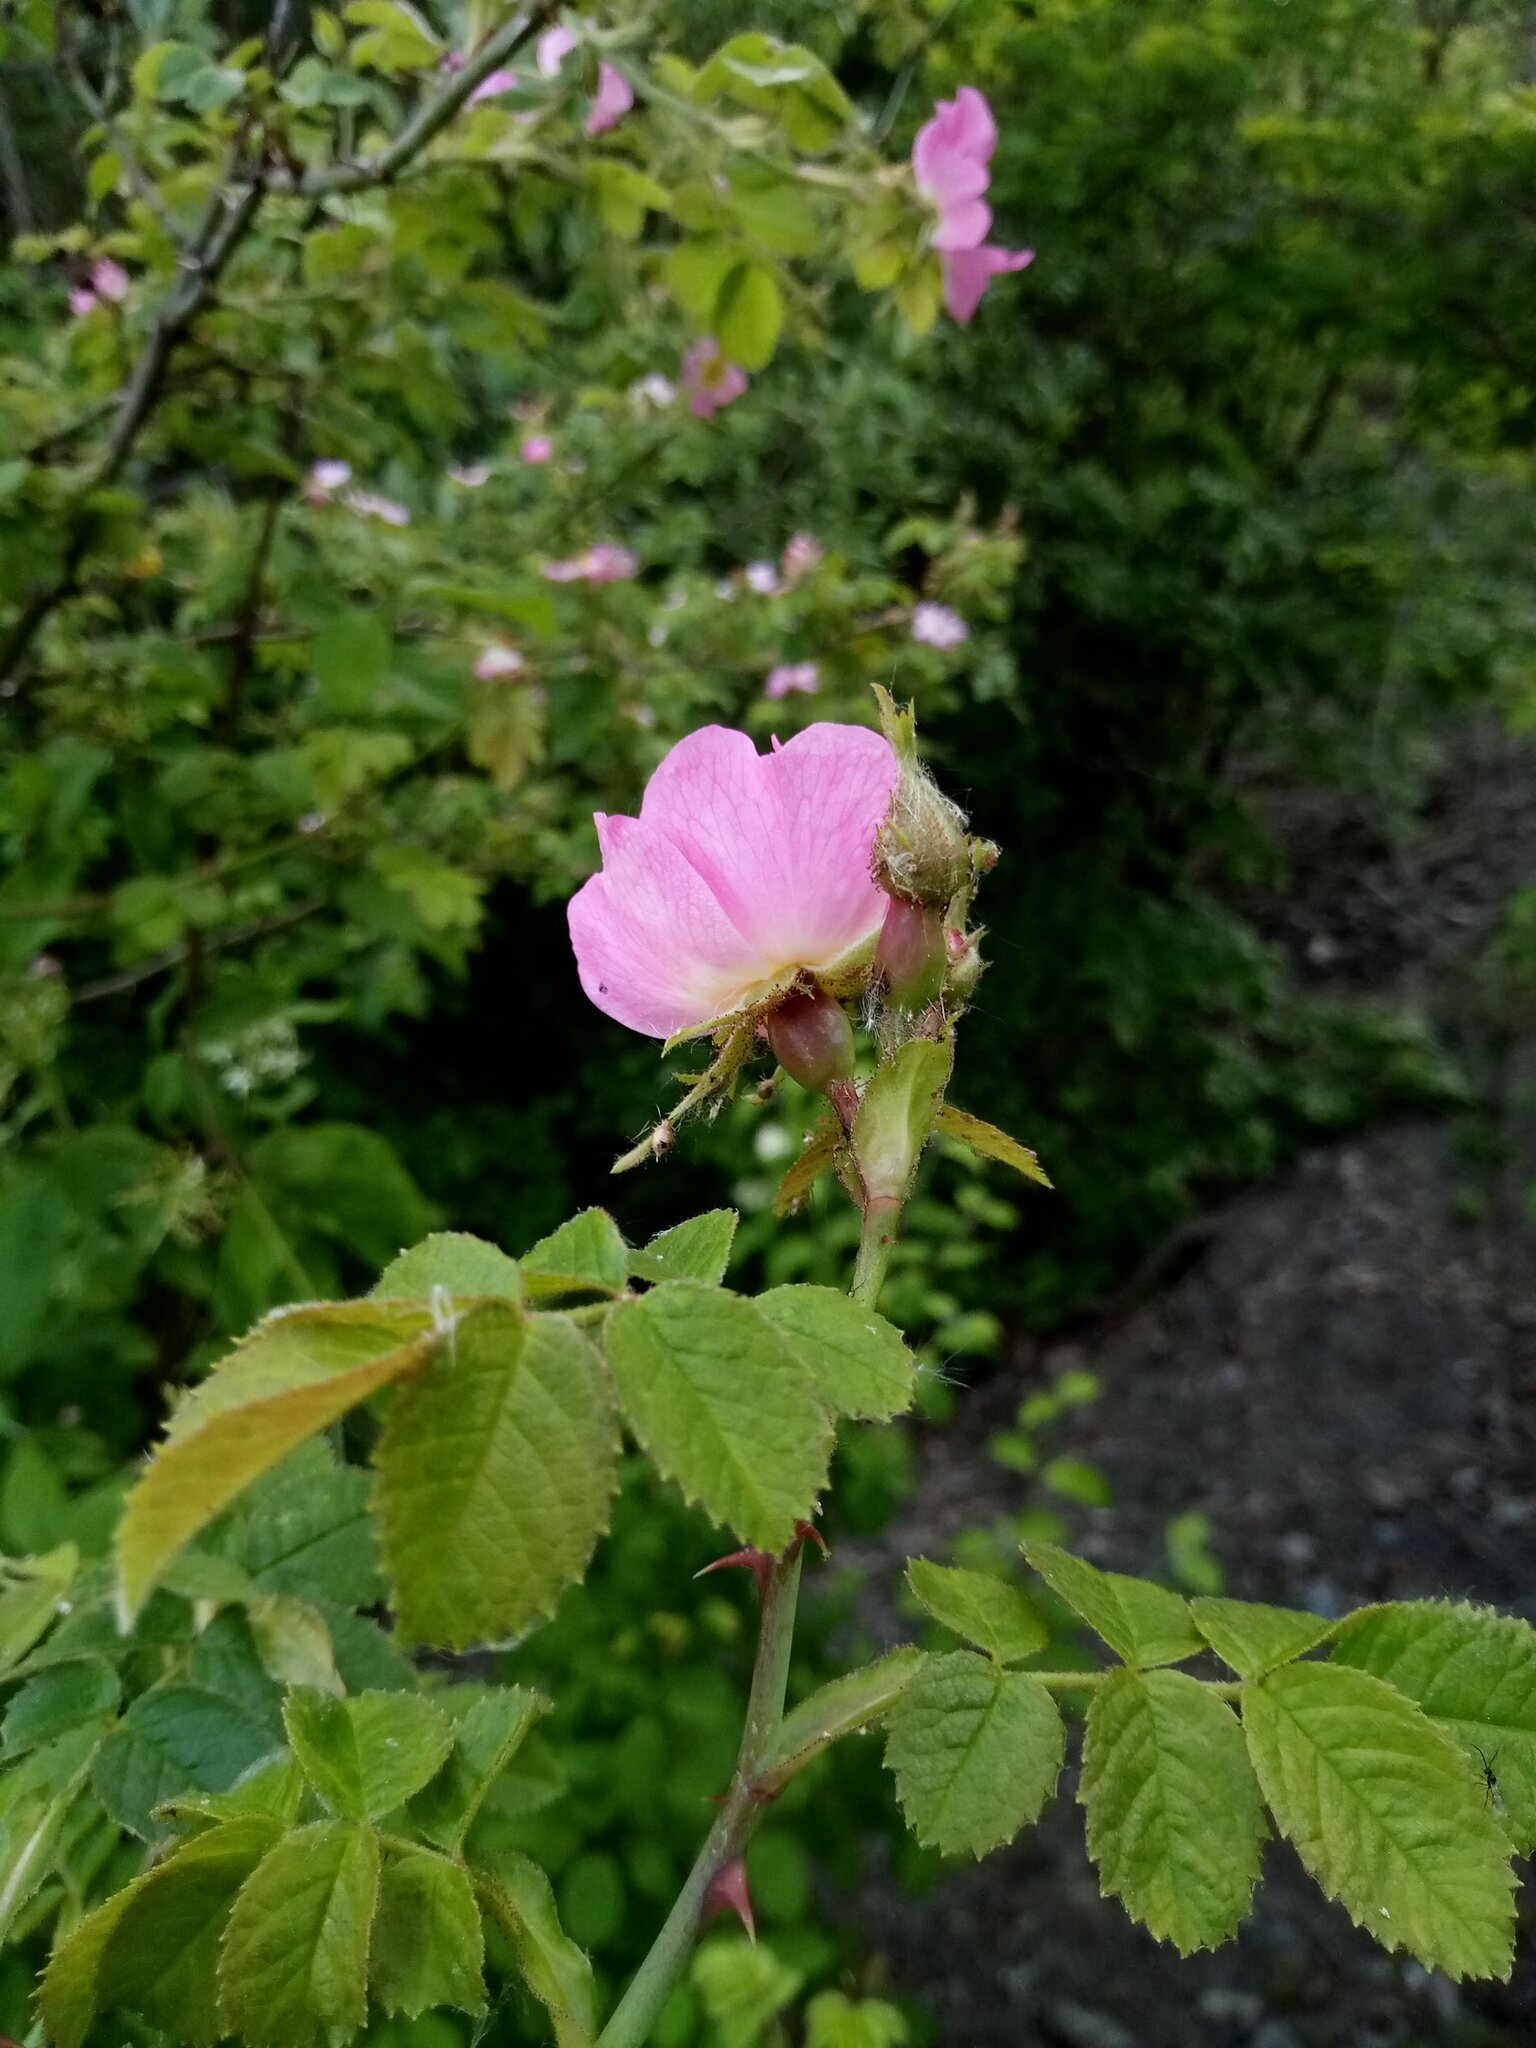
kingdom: Plantae
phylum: Tracheophyta
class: Magnoliopsida
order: Rosales
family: Rosaceae
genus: Rosa
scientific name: Rosa rubiginosa
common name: Sweet-briar
